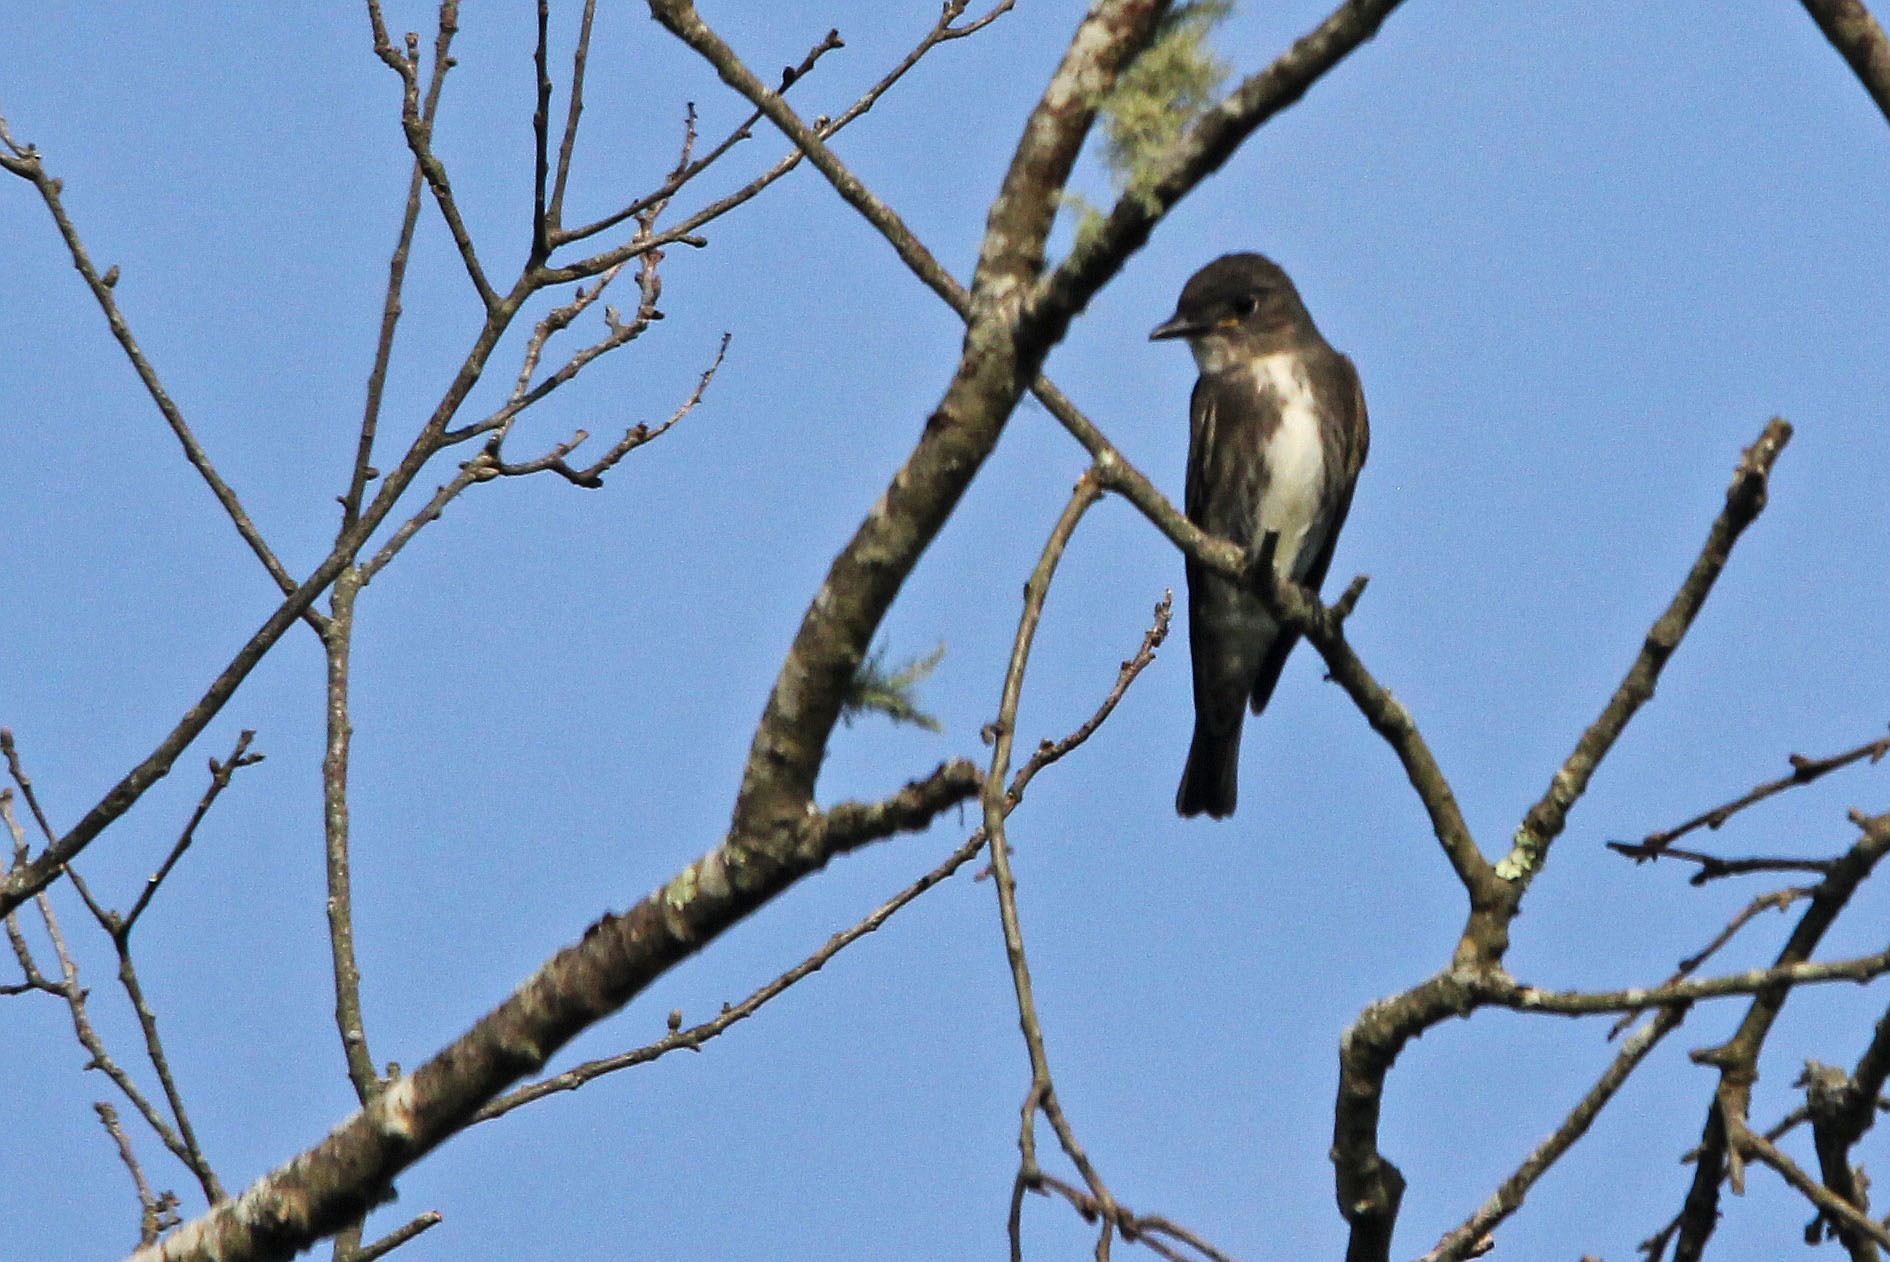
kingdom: Animalia
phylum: Chordata
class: Aves
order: Passeriformes
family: Tyrannidae
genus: Contopus
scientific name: Contopus cooperi
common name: Olive-sided flycatcher
